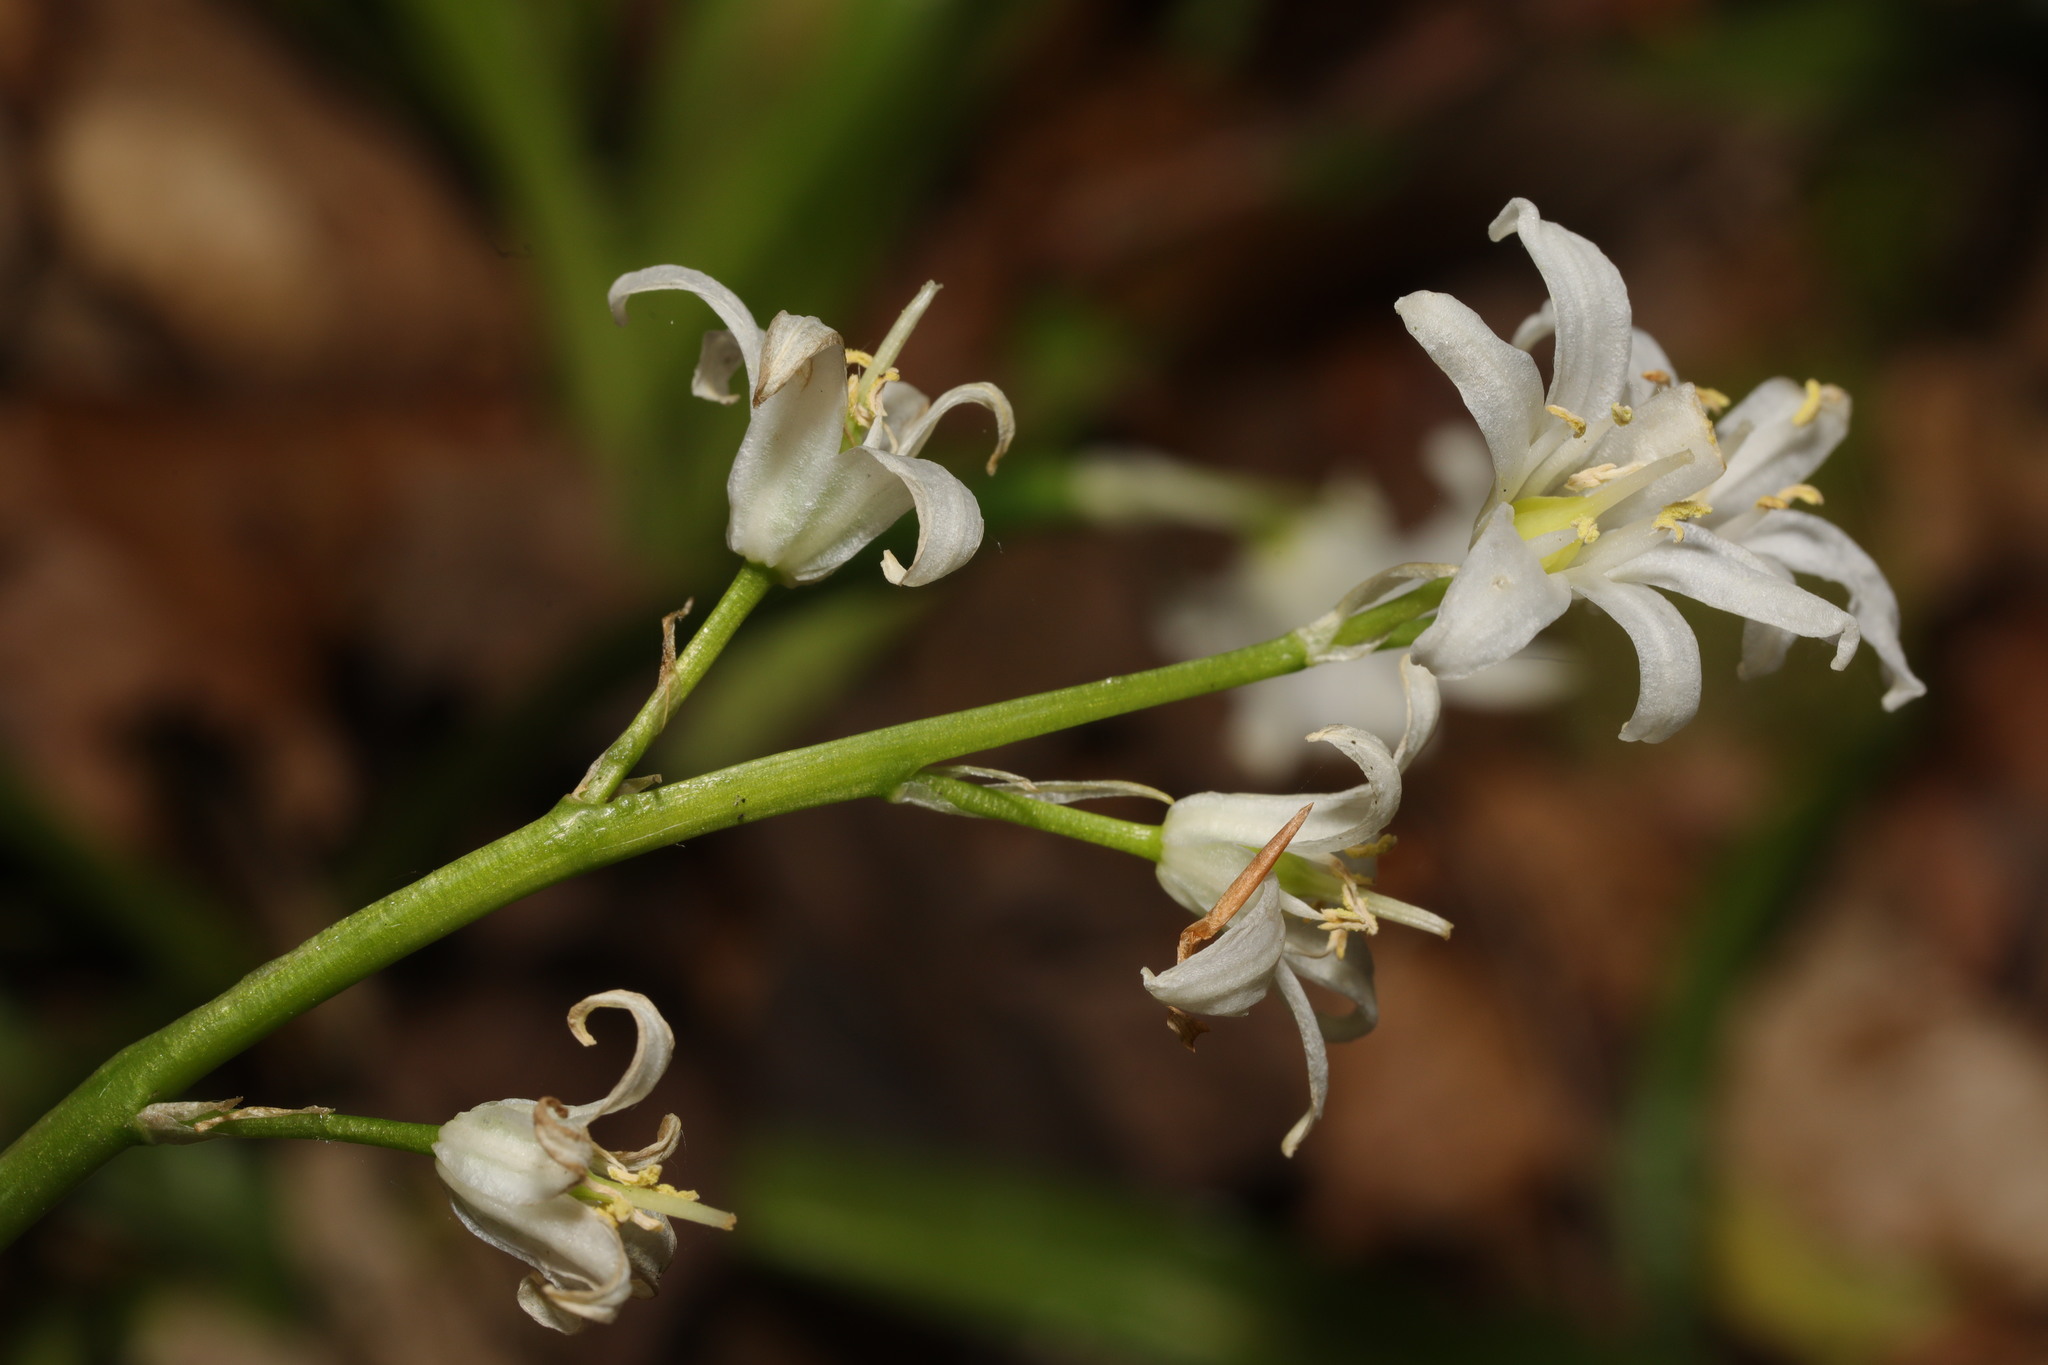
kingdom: Plantae
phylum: Tracheophyta
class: Liliopsida
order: Asparagales
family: Asparagaceae
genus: Hyacinthoides
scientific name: Hyacinthoides hispanica
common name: Spanish bluebell
